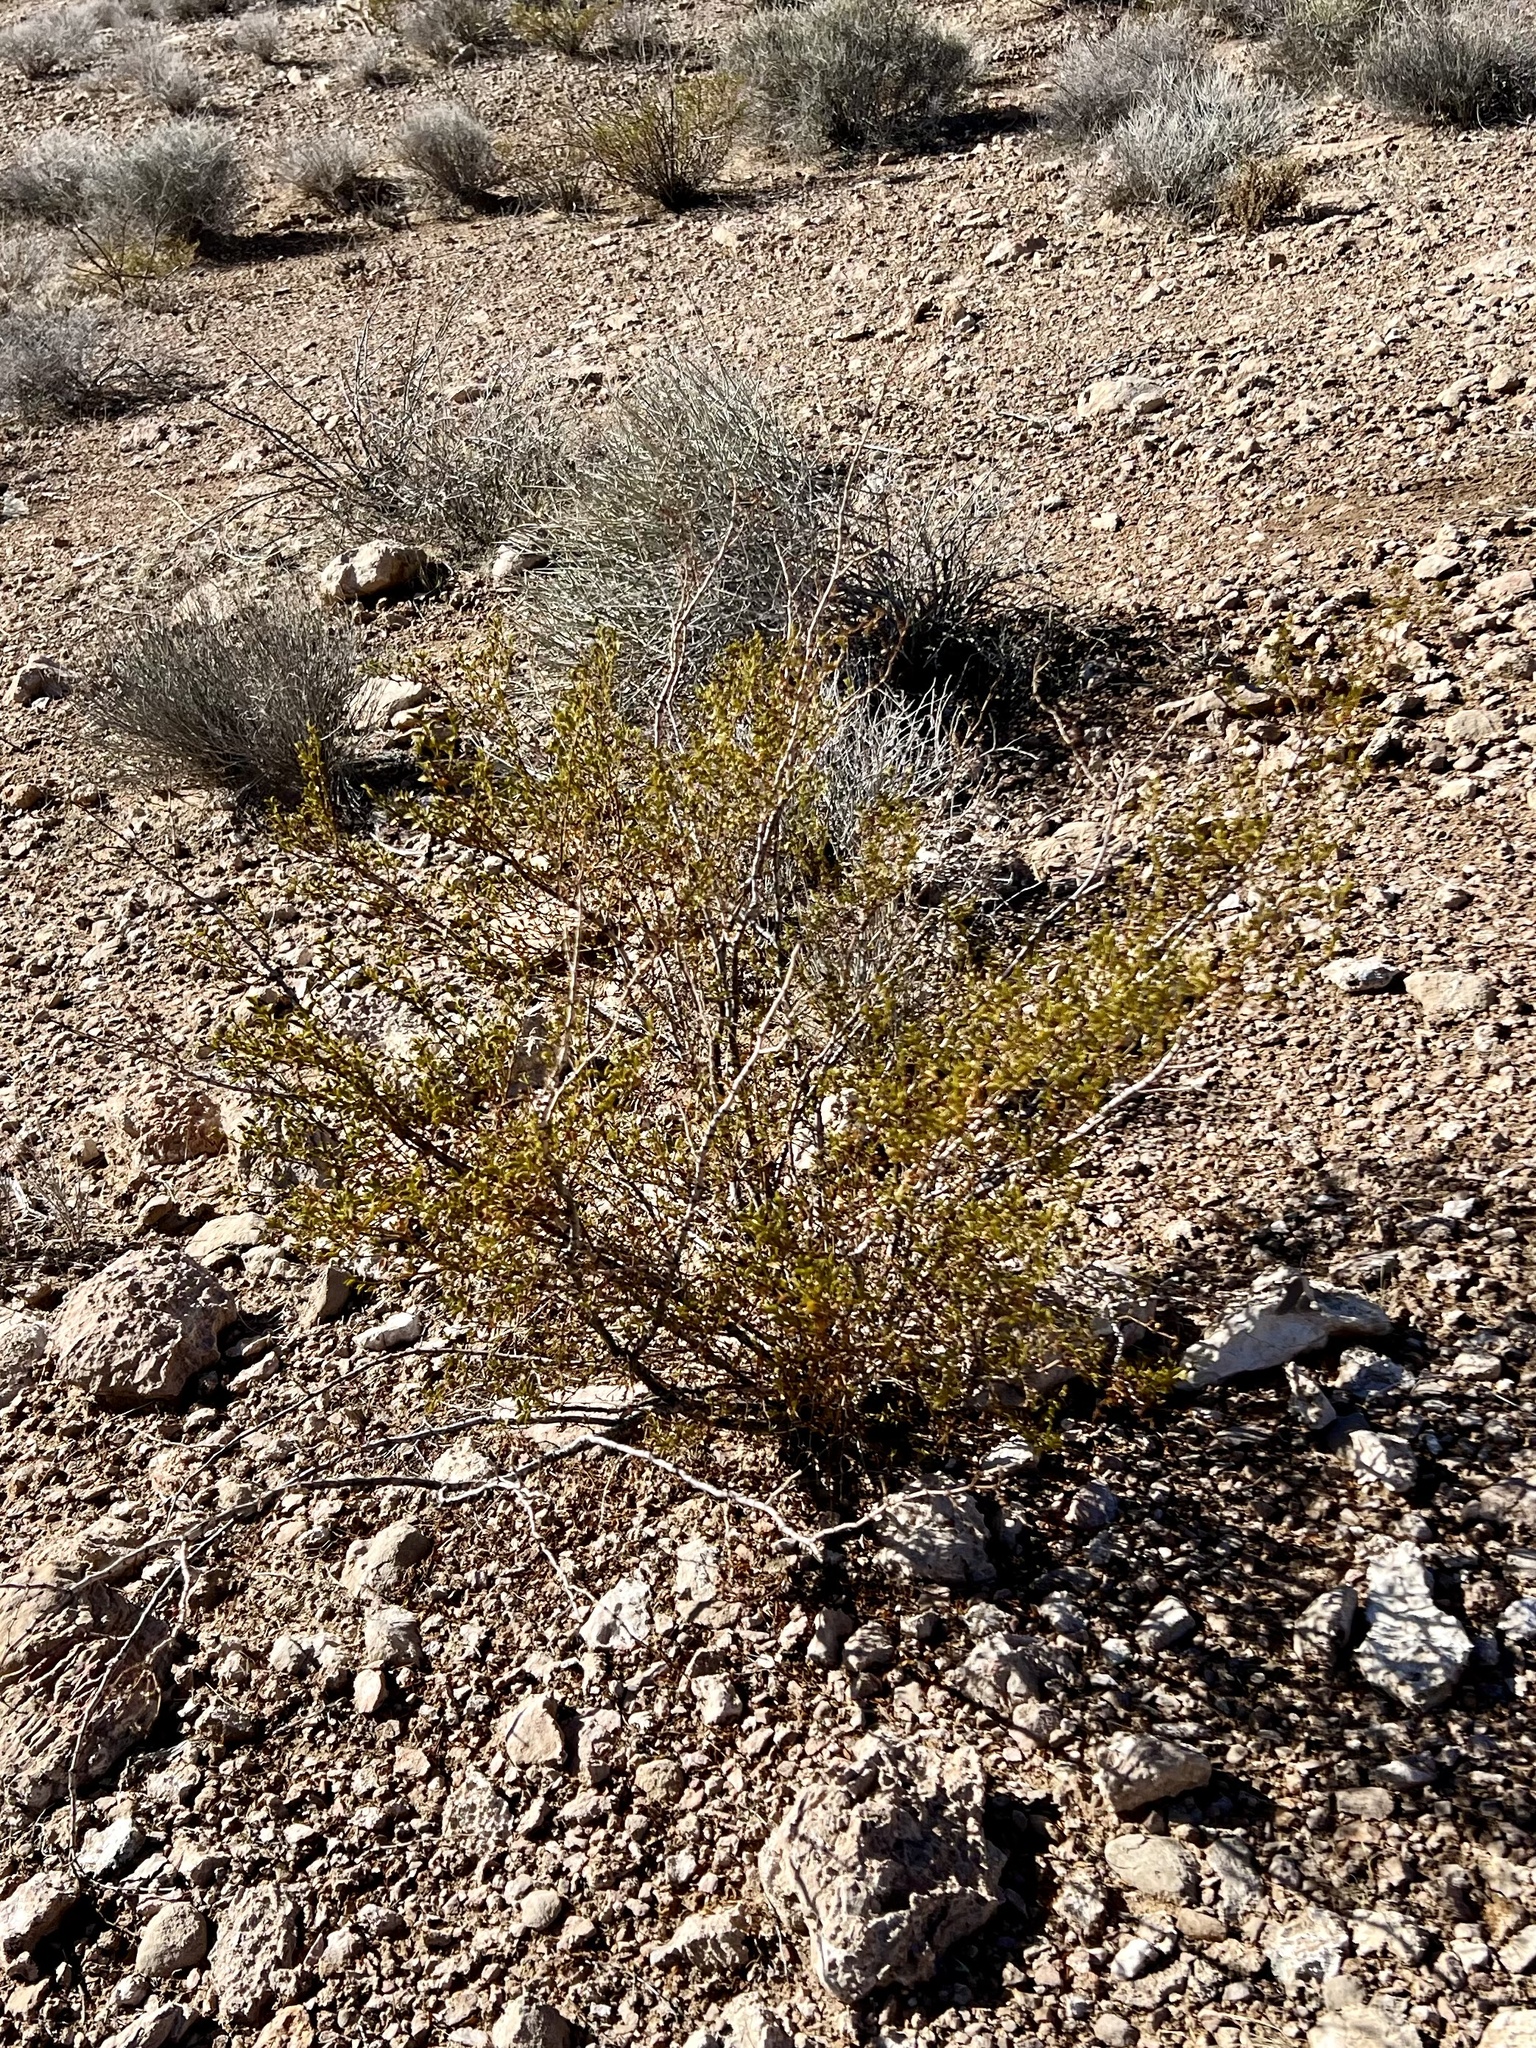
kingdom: Plantae
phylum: Tracheophyta
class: Magnoliopsida
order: Zygophyllales
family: Zygophyllaceae
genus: Larrea
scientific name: Larrea tridentata
